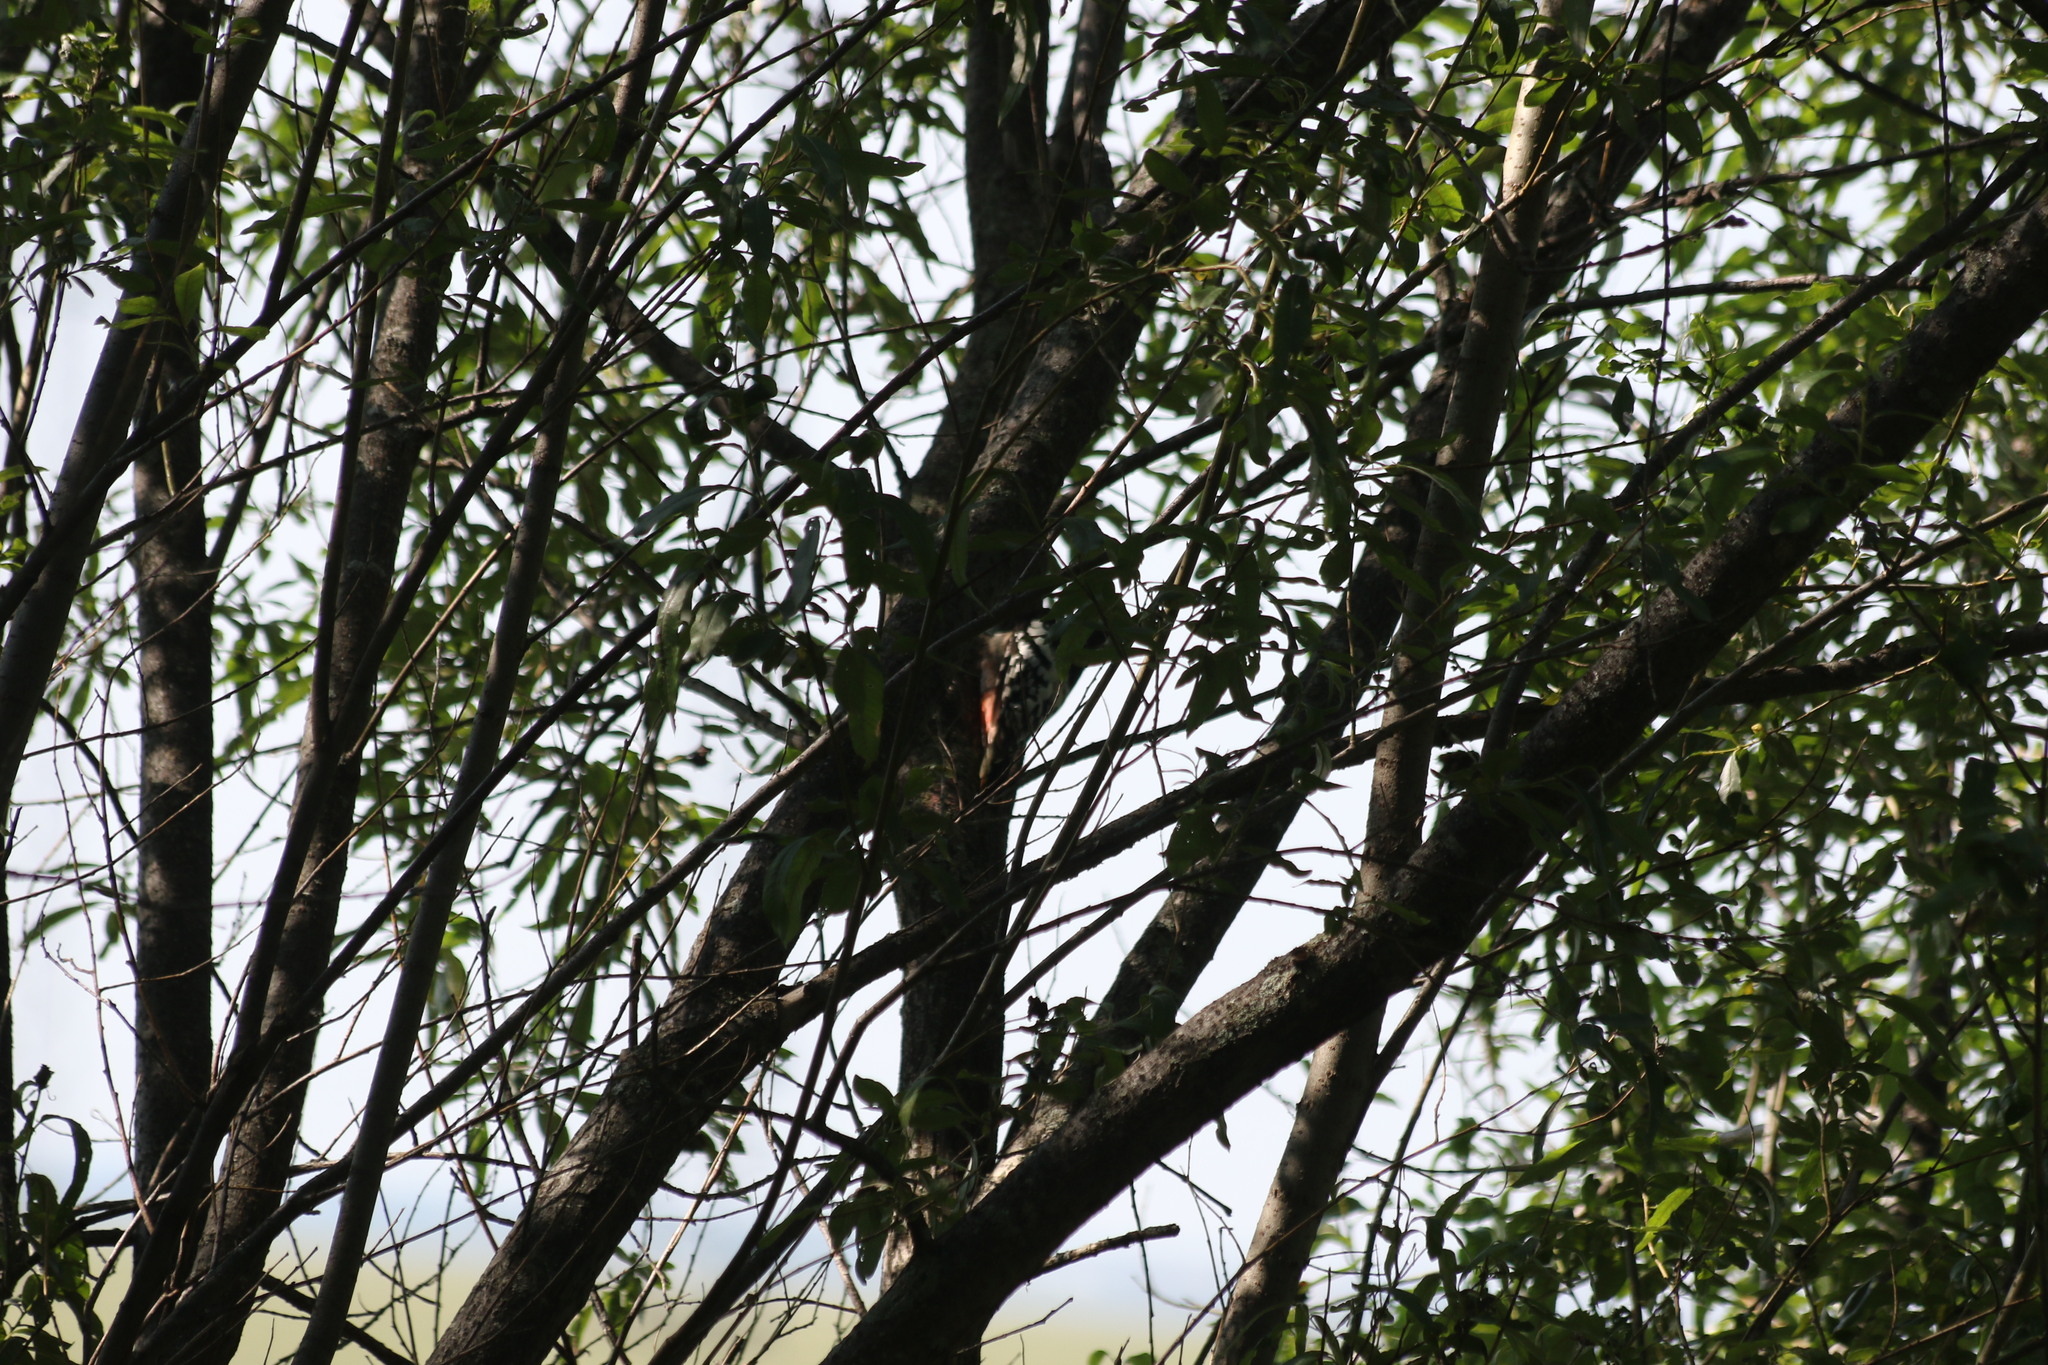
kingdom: Animalia
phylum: Chordata
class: Aves
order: Piciformes
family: Picidae
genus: Dendrocopos
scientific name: Dendrocopos leucotos
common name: White-backed woodpecker
